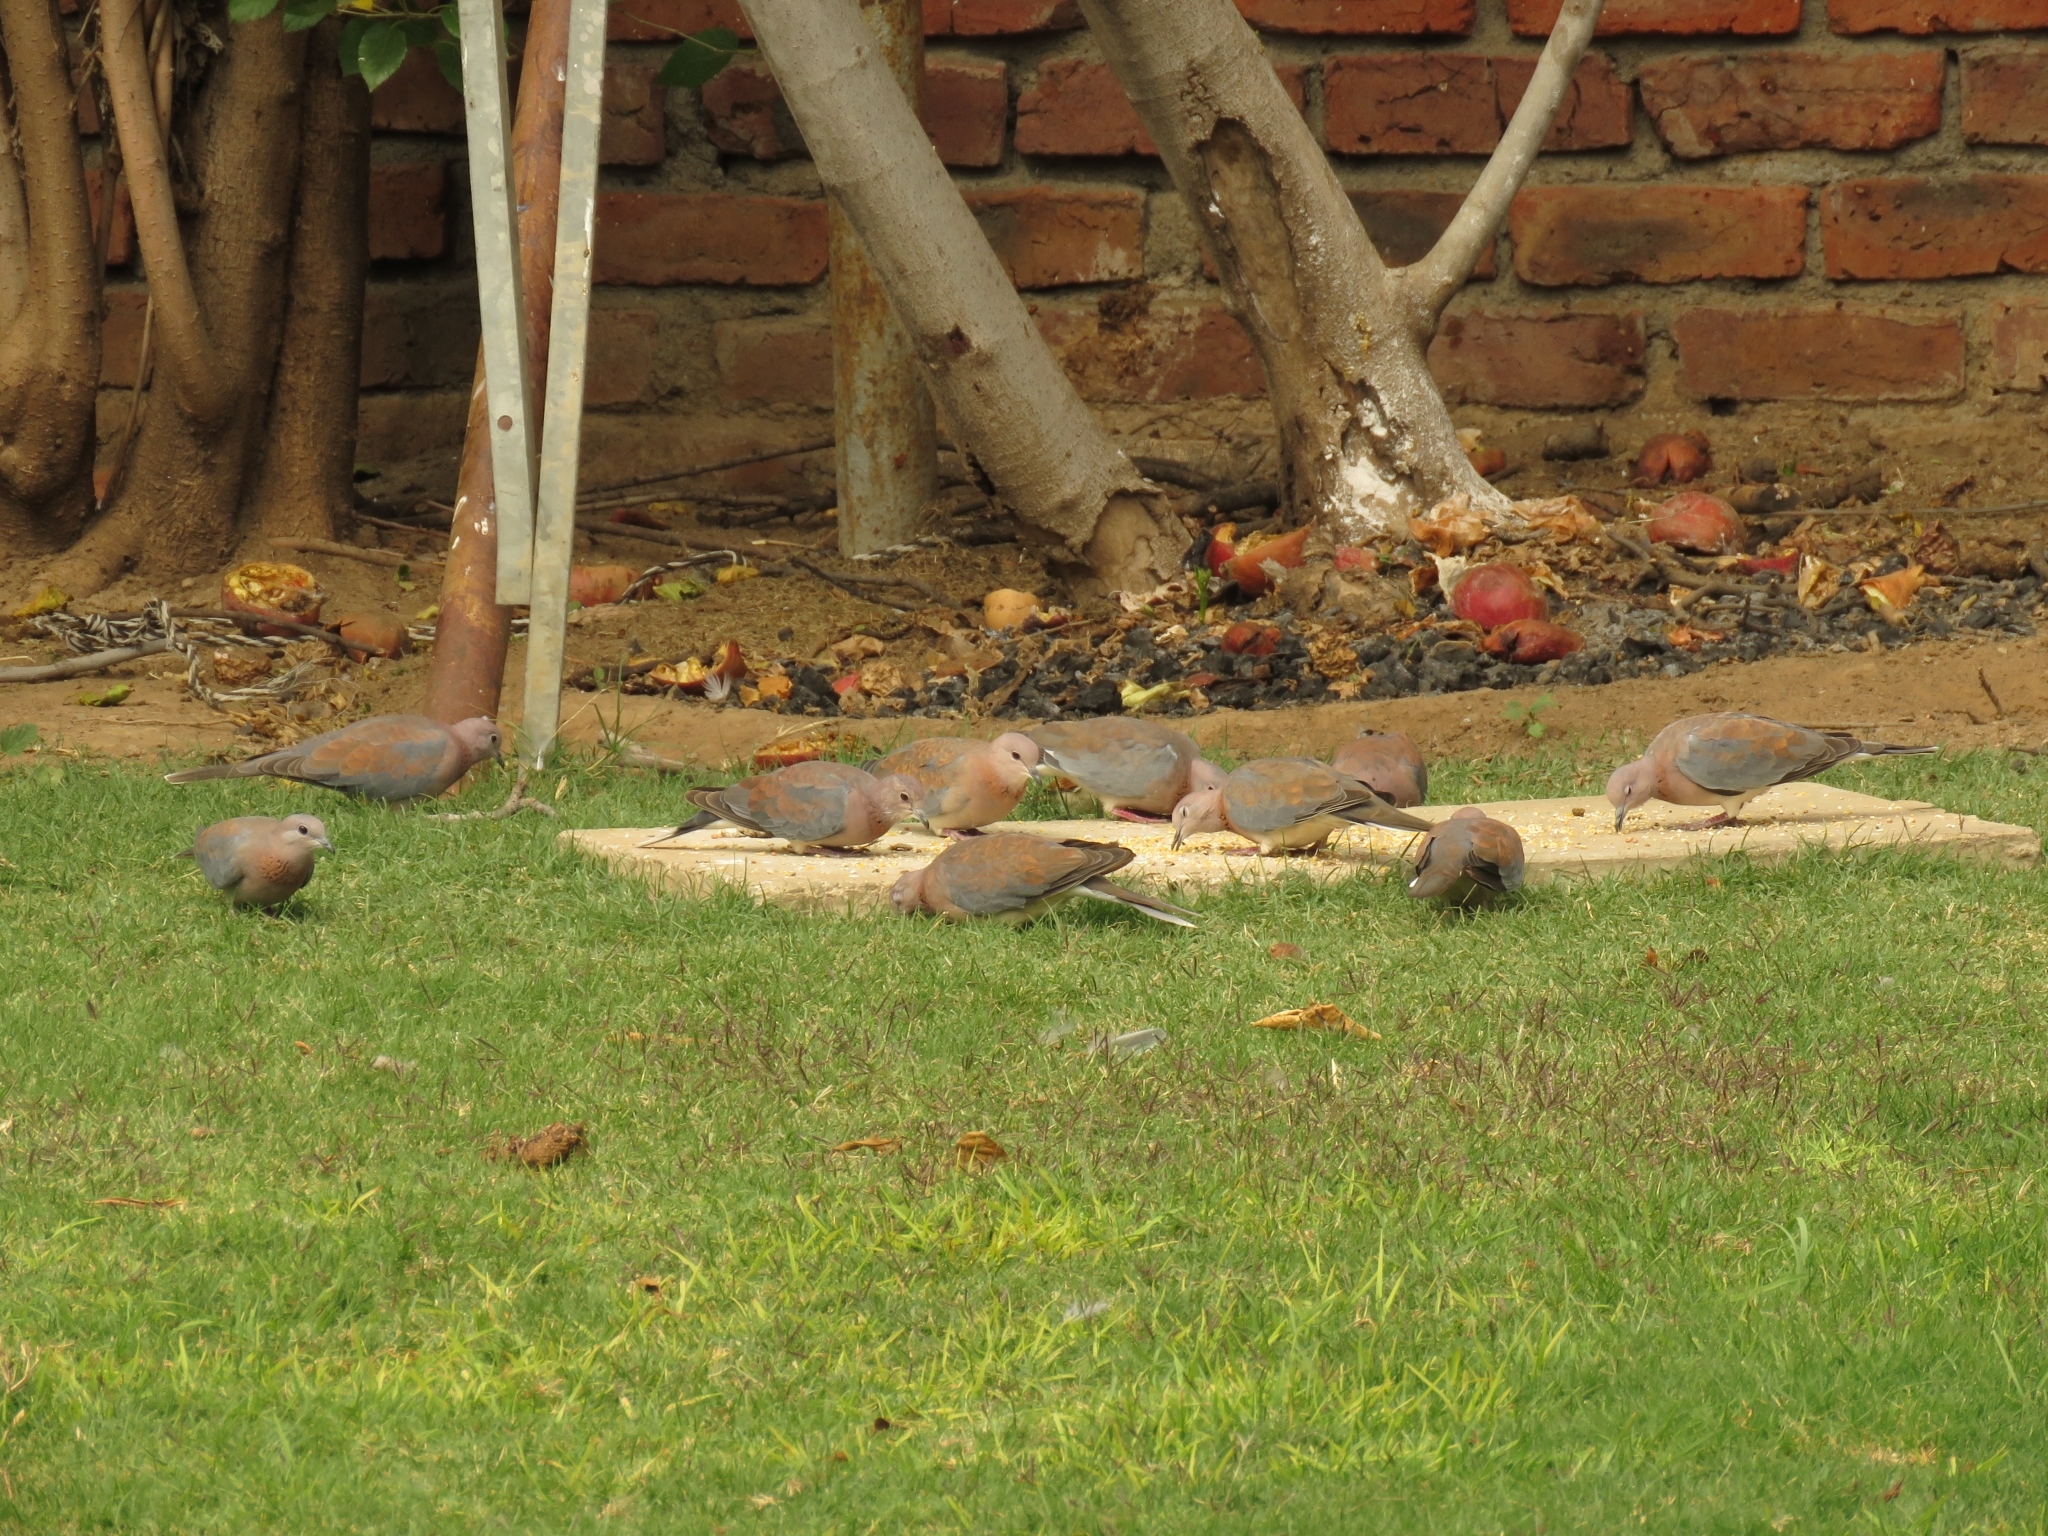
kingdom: Animalia
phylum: Chordata
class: Aves
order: Columbiformes
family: Columbidae
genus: Spilopelia
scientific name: Spilopelia senegalensis
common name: Laughing dove
